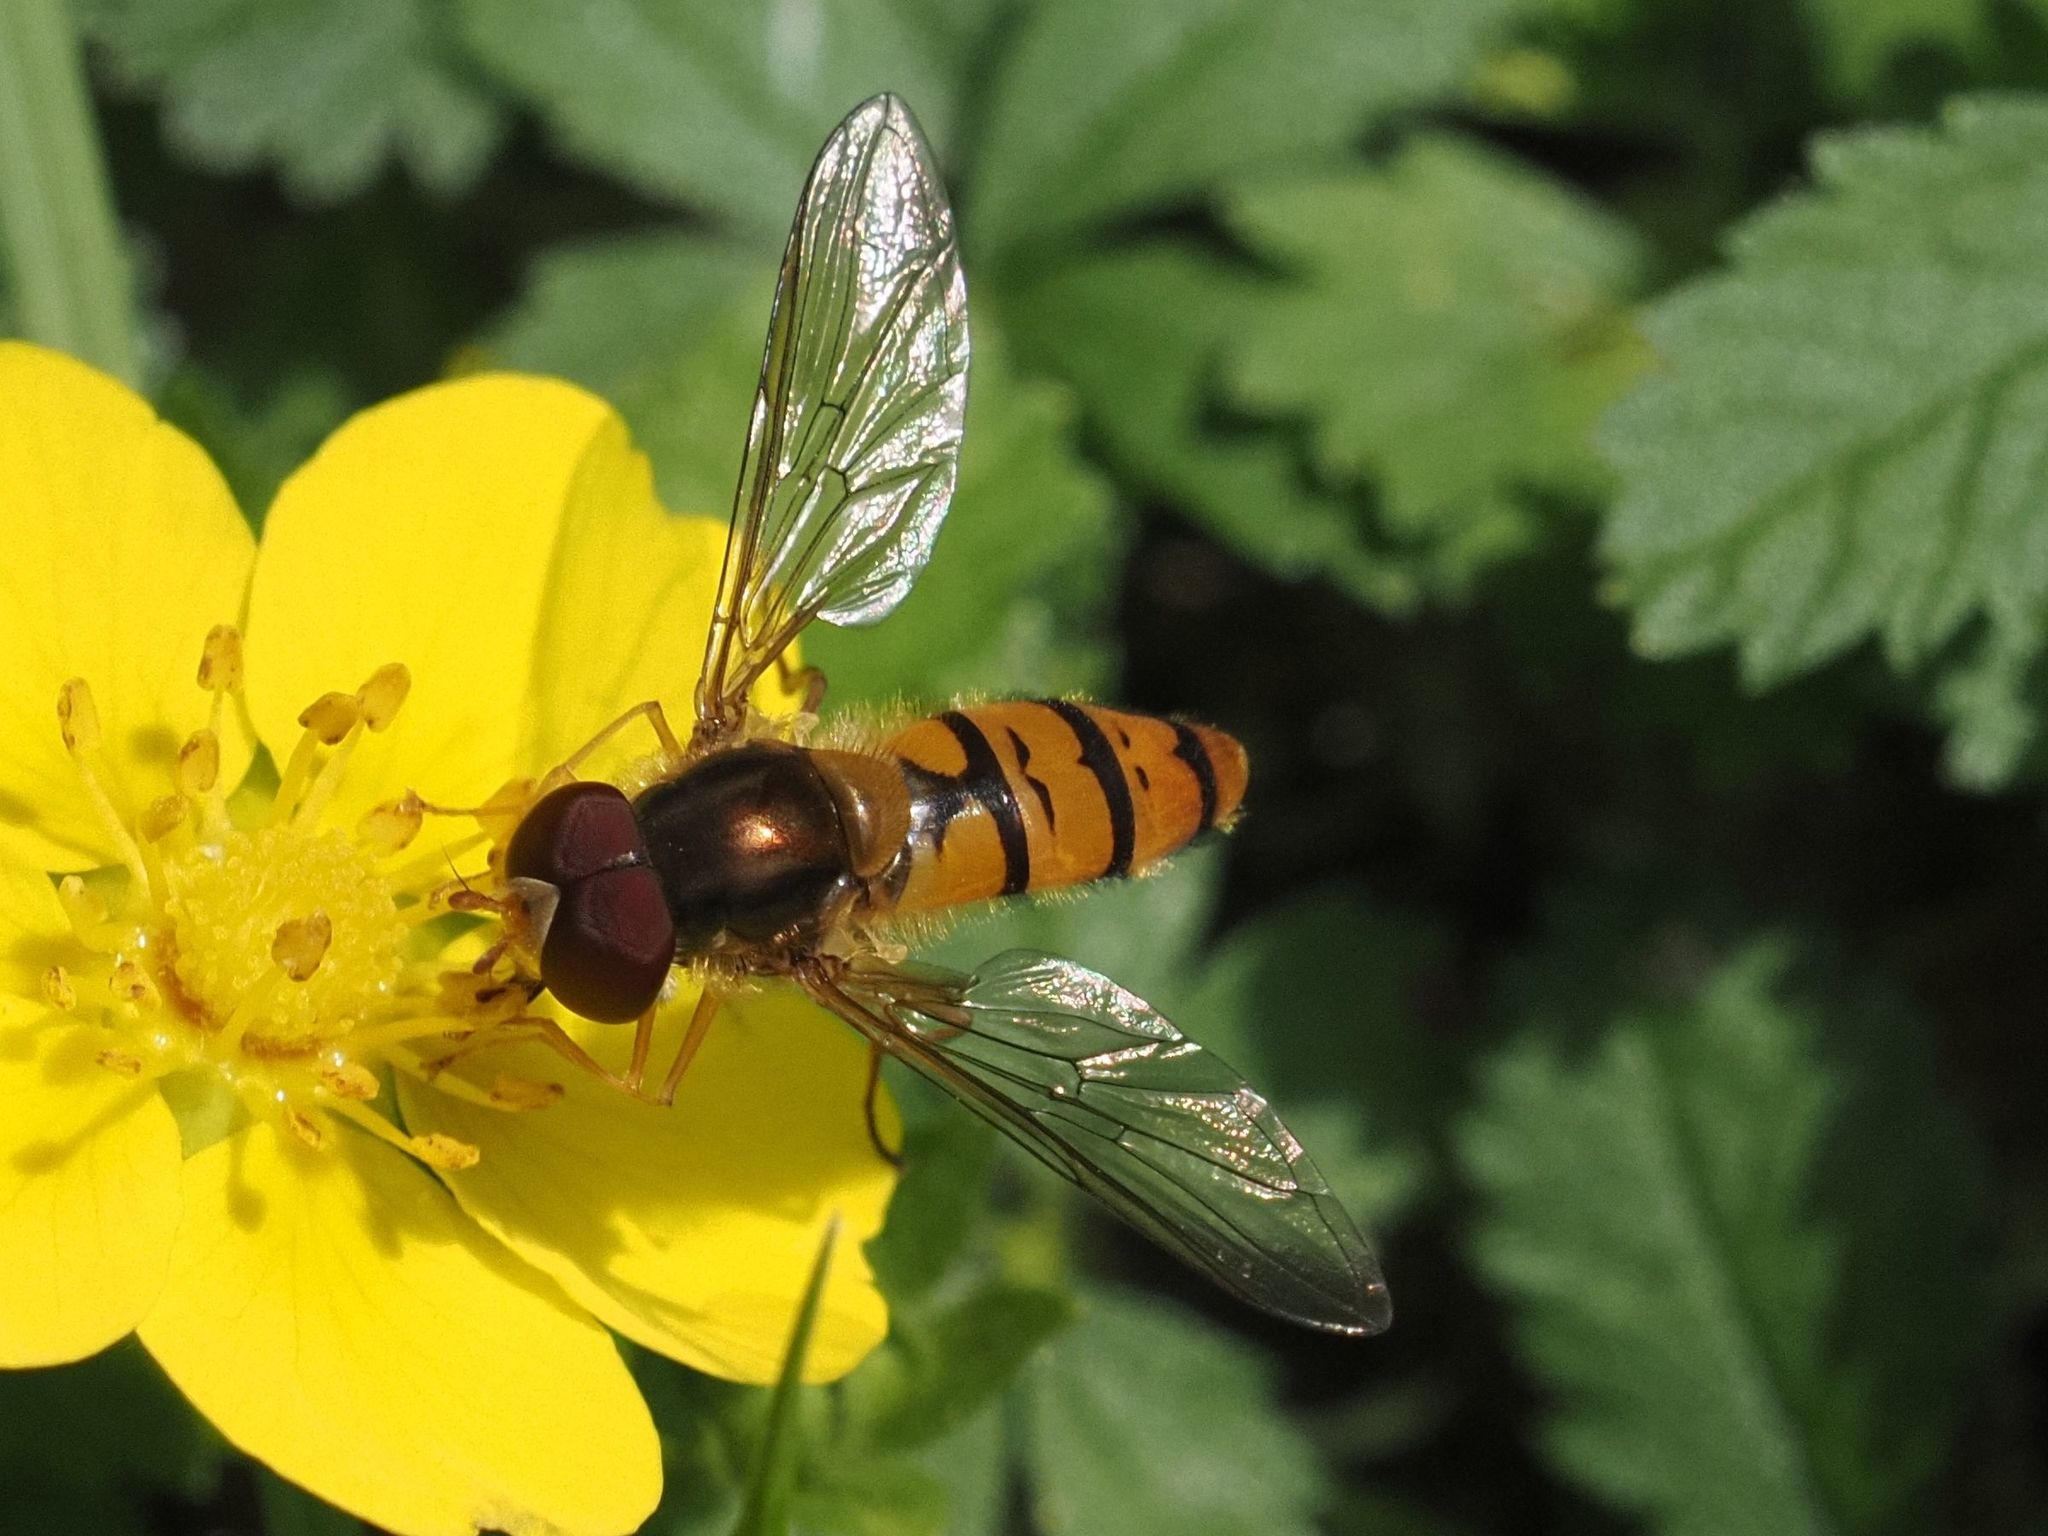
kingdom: Animalia
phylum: Arthropoda
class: Insecta
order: Diptera
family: Syrphidae
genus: Episyrphus
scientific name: Episyrphus balteatus
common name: Marmalade hoverfly
